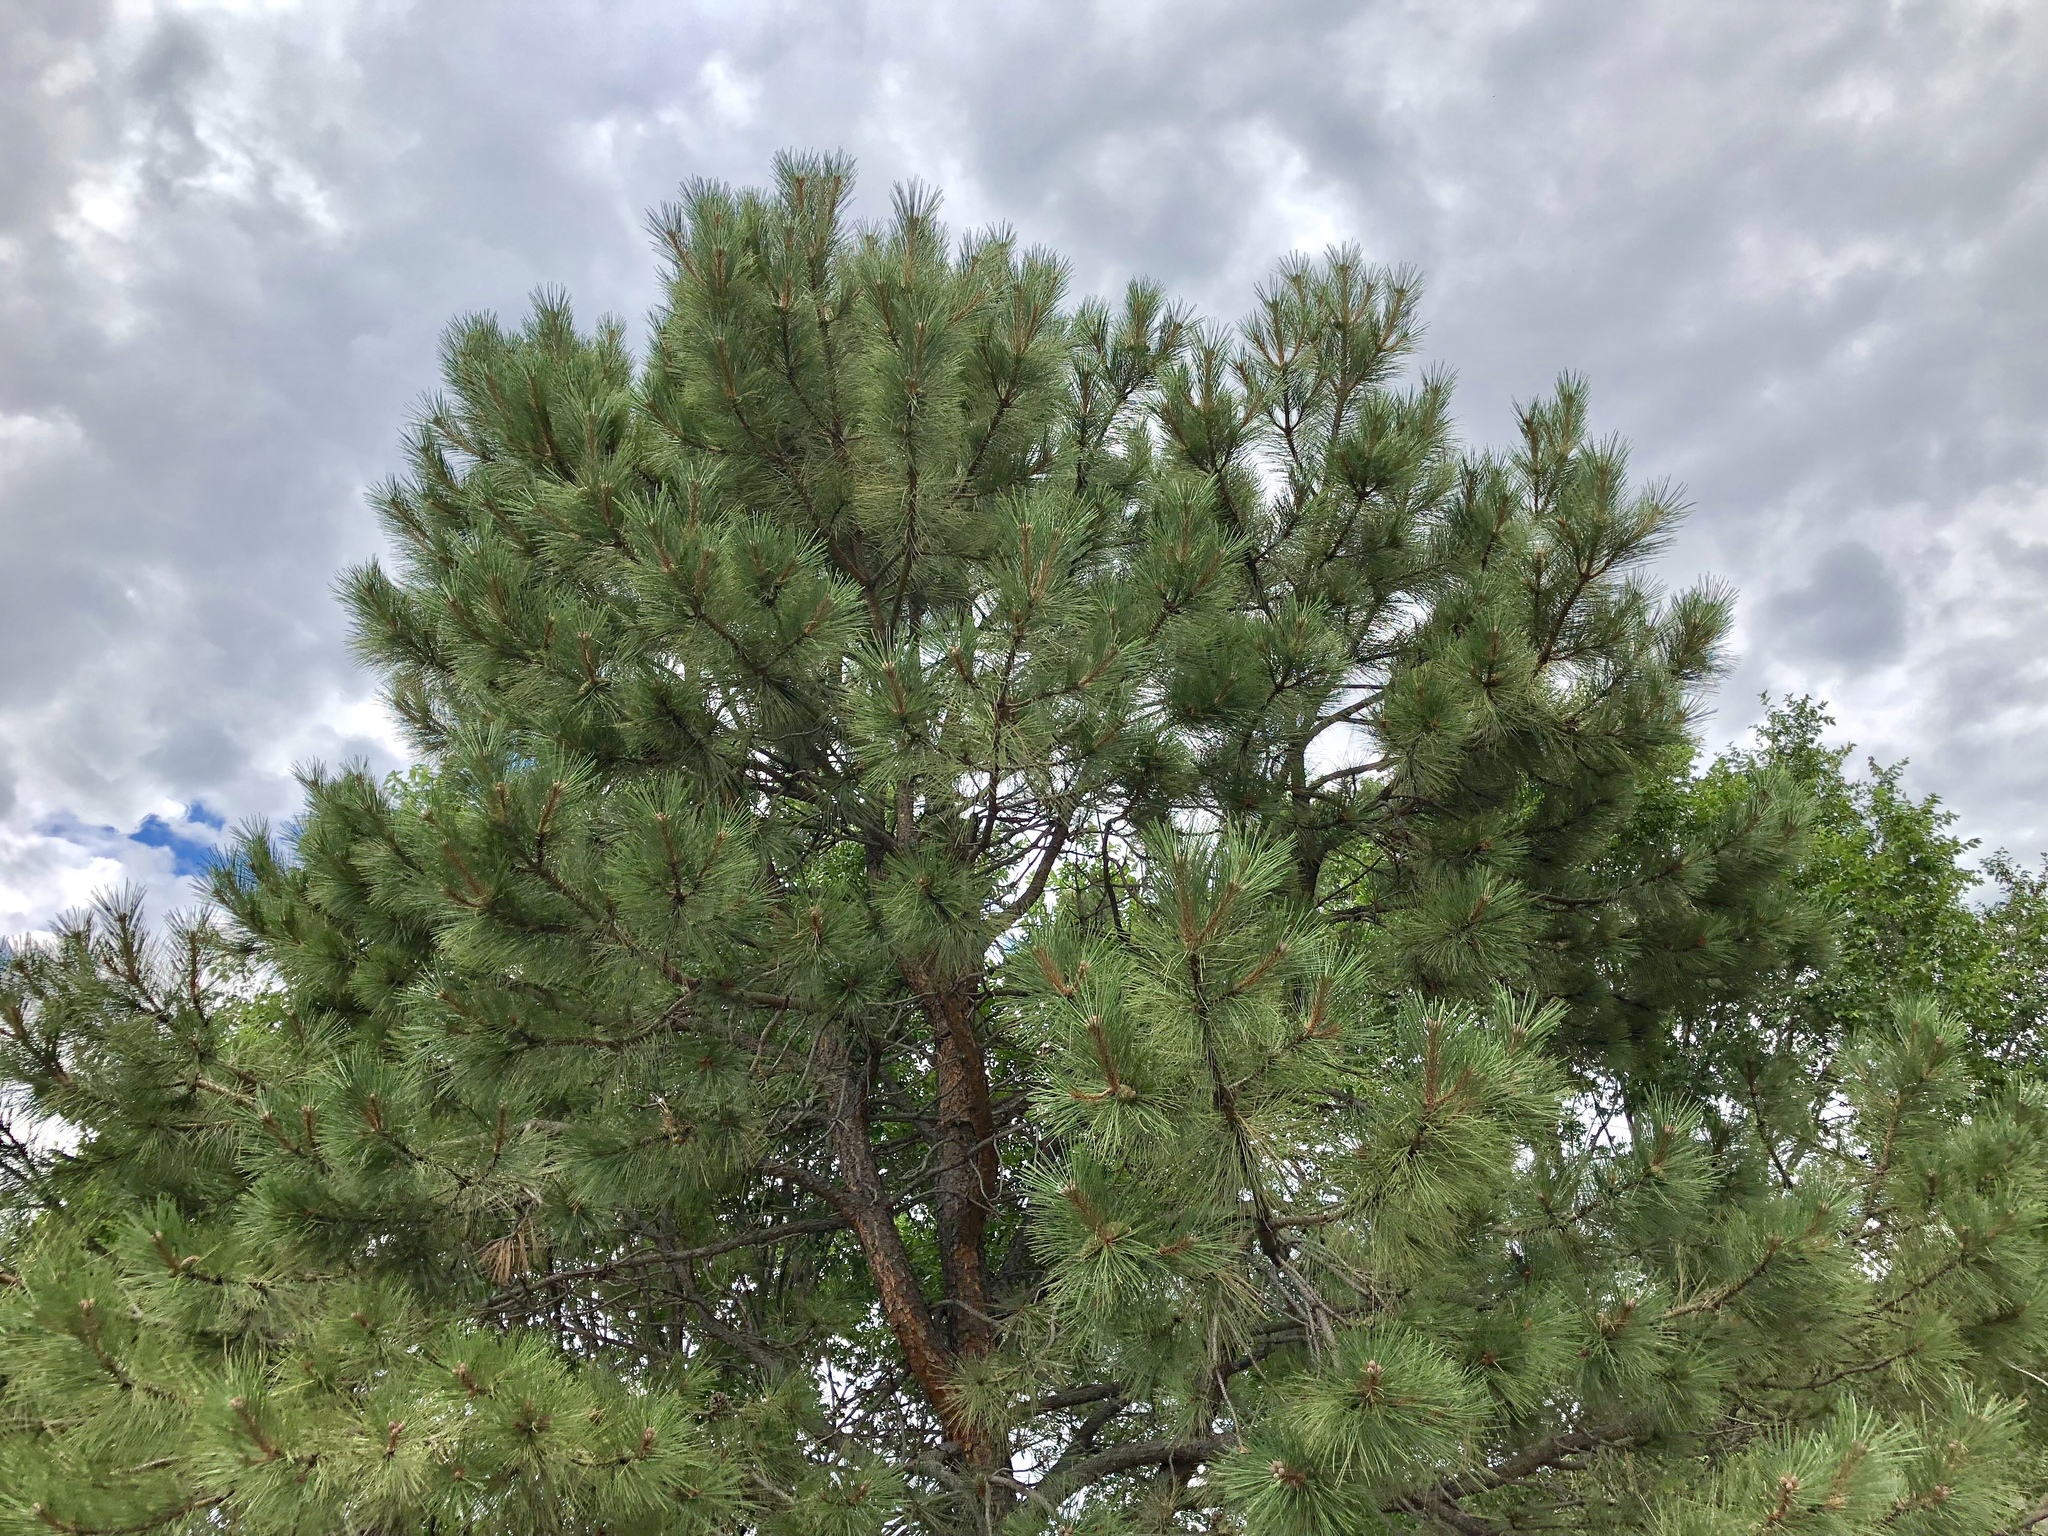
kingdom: Plantae
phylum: Tracheophyta
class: Pinopsida
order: Pinales
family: Pinaceae
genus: Pinus
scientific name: Pinus ponderosa
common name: Western yellow-pine
